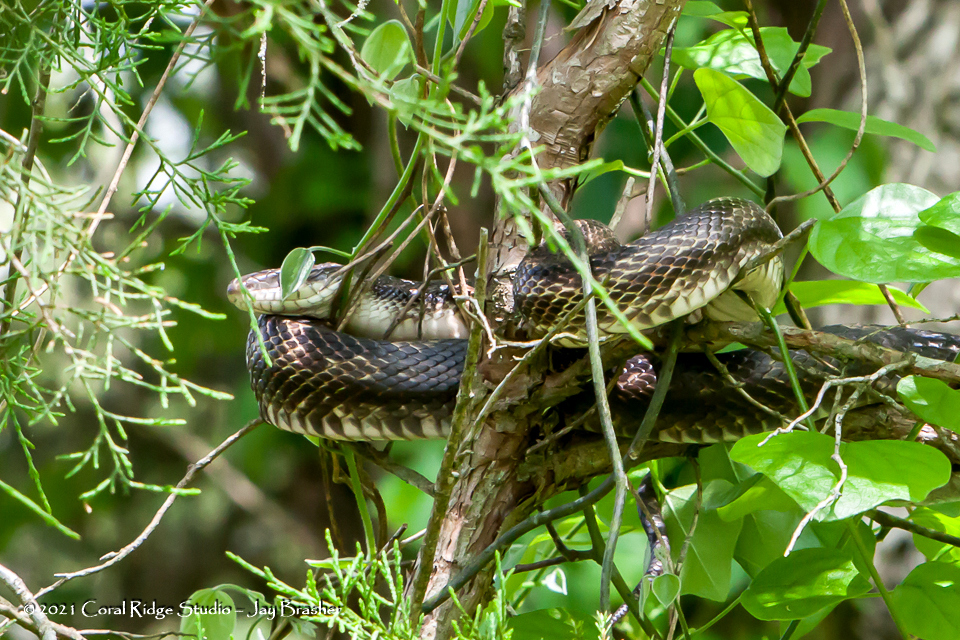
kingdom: Animalia
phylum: Chordata
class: Squamata
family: Colubridae
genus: Pantherophis
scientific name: Pantherophis spiloides
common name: Gray rat snake
